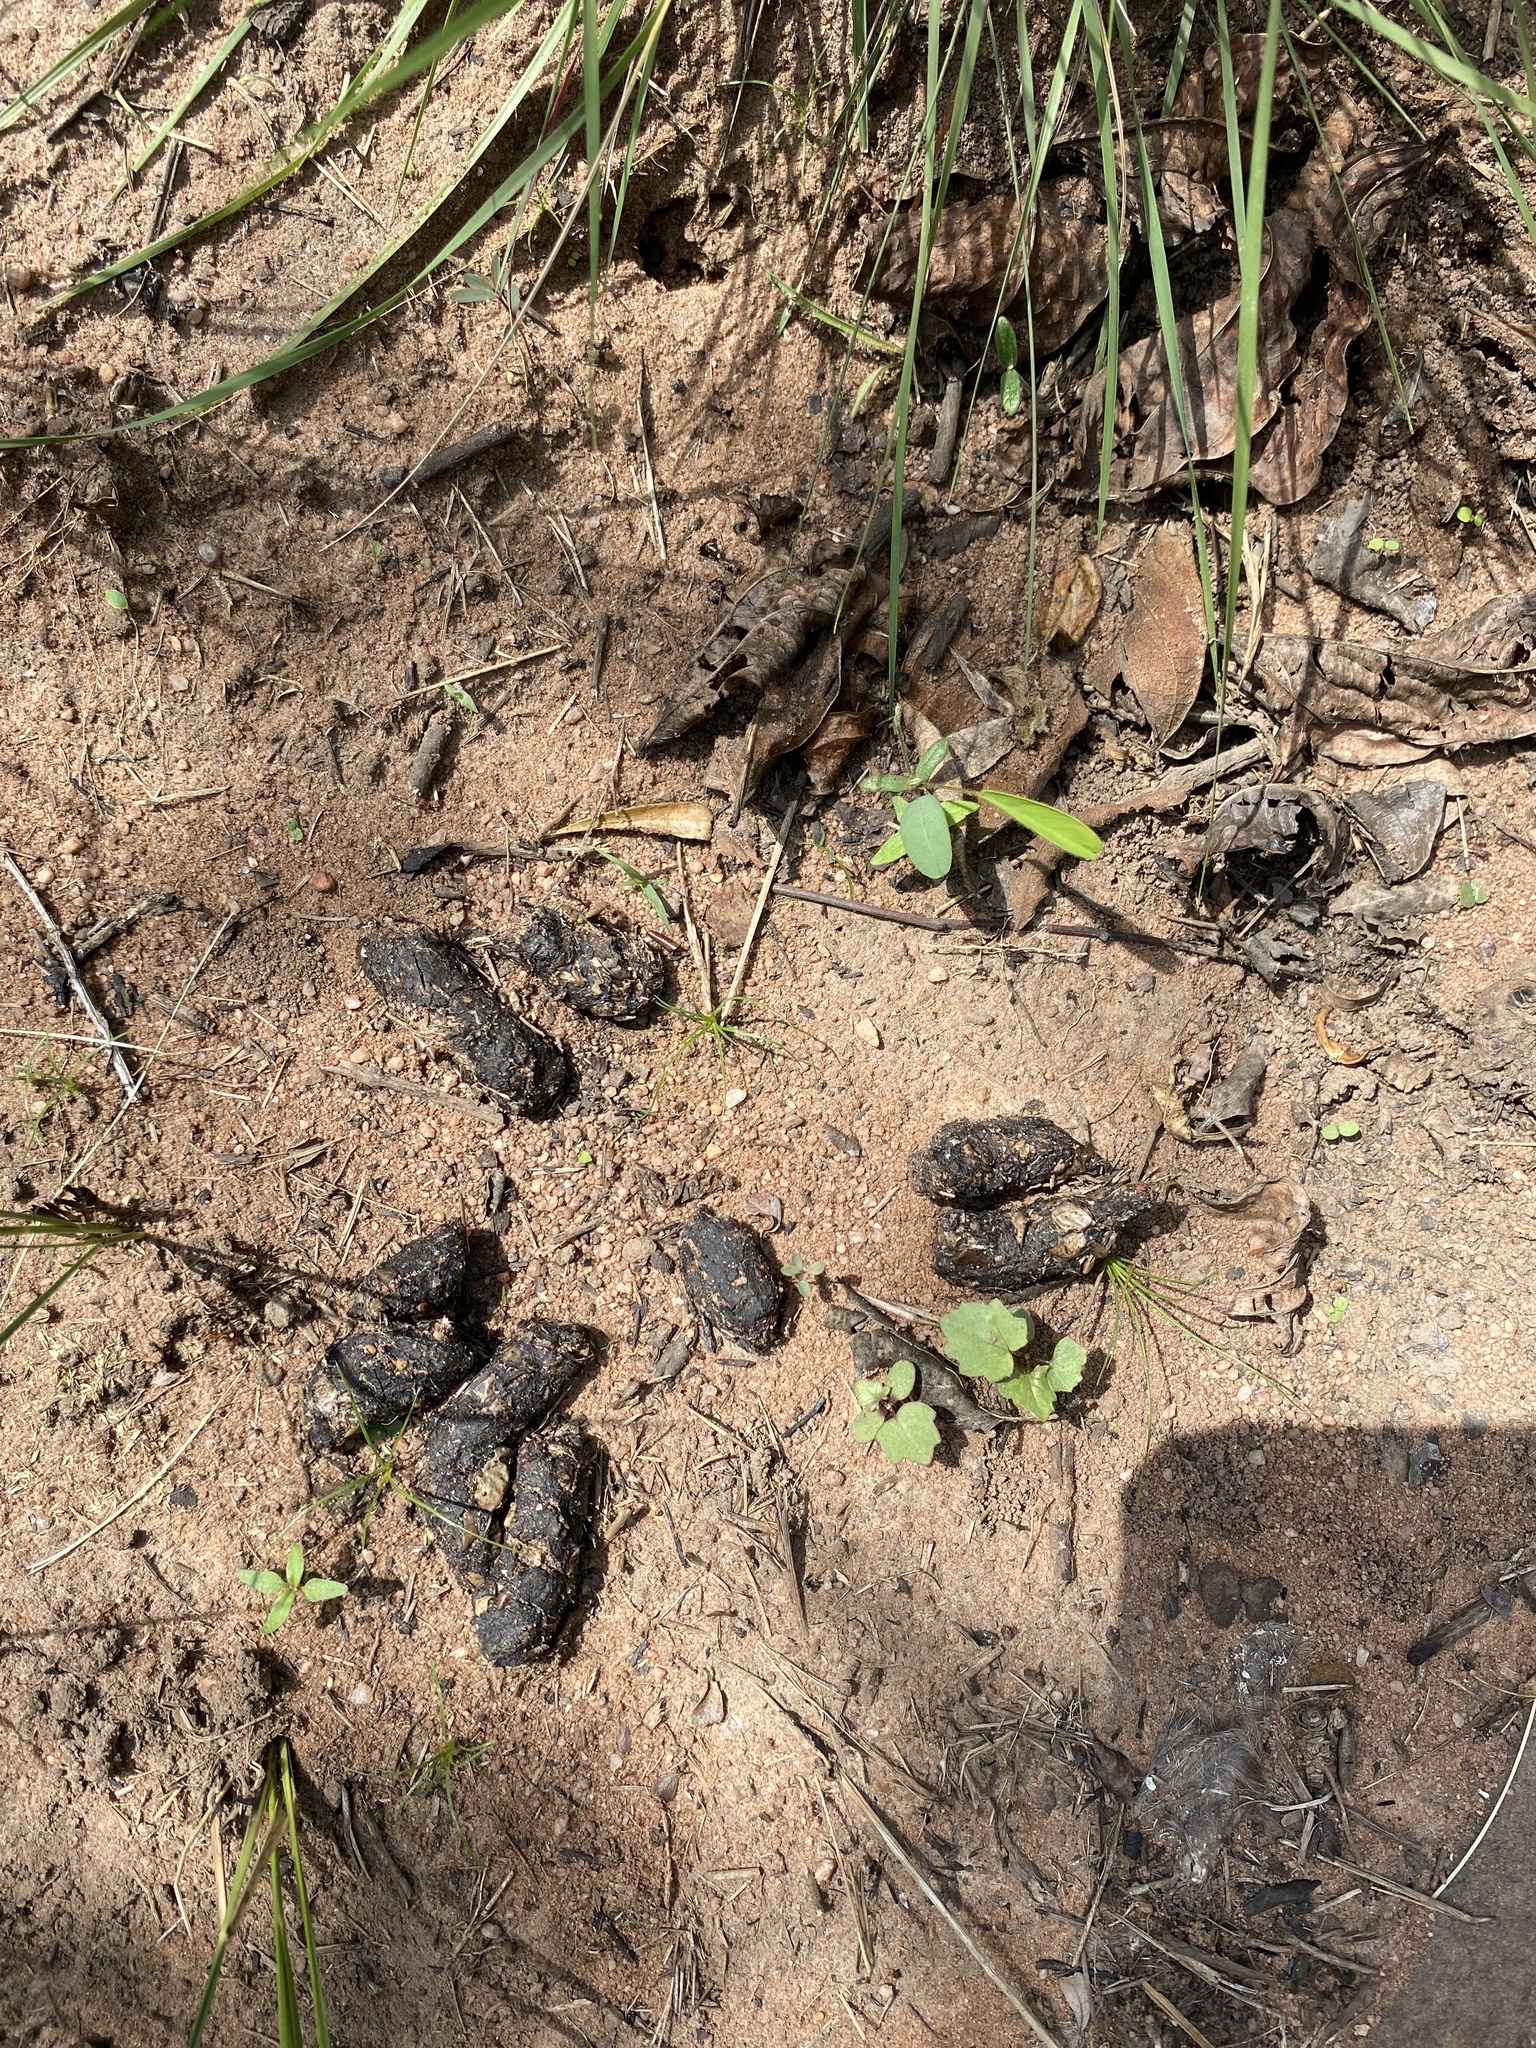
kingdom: Animalia
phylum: Chordata
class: Mammalia
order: Rodentia
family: Hystricidae
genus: Hystrix
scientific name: Hystrix africaeaustralis
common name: Cape porcupine
